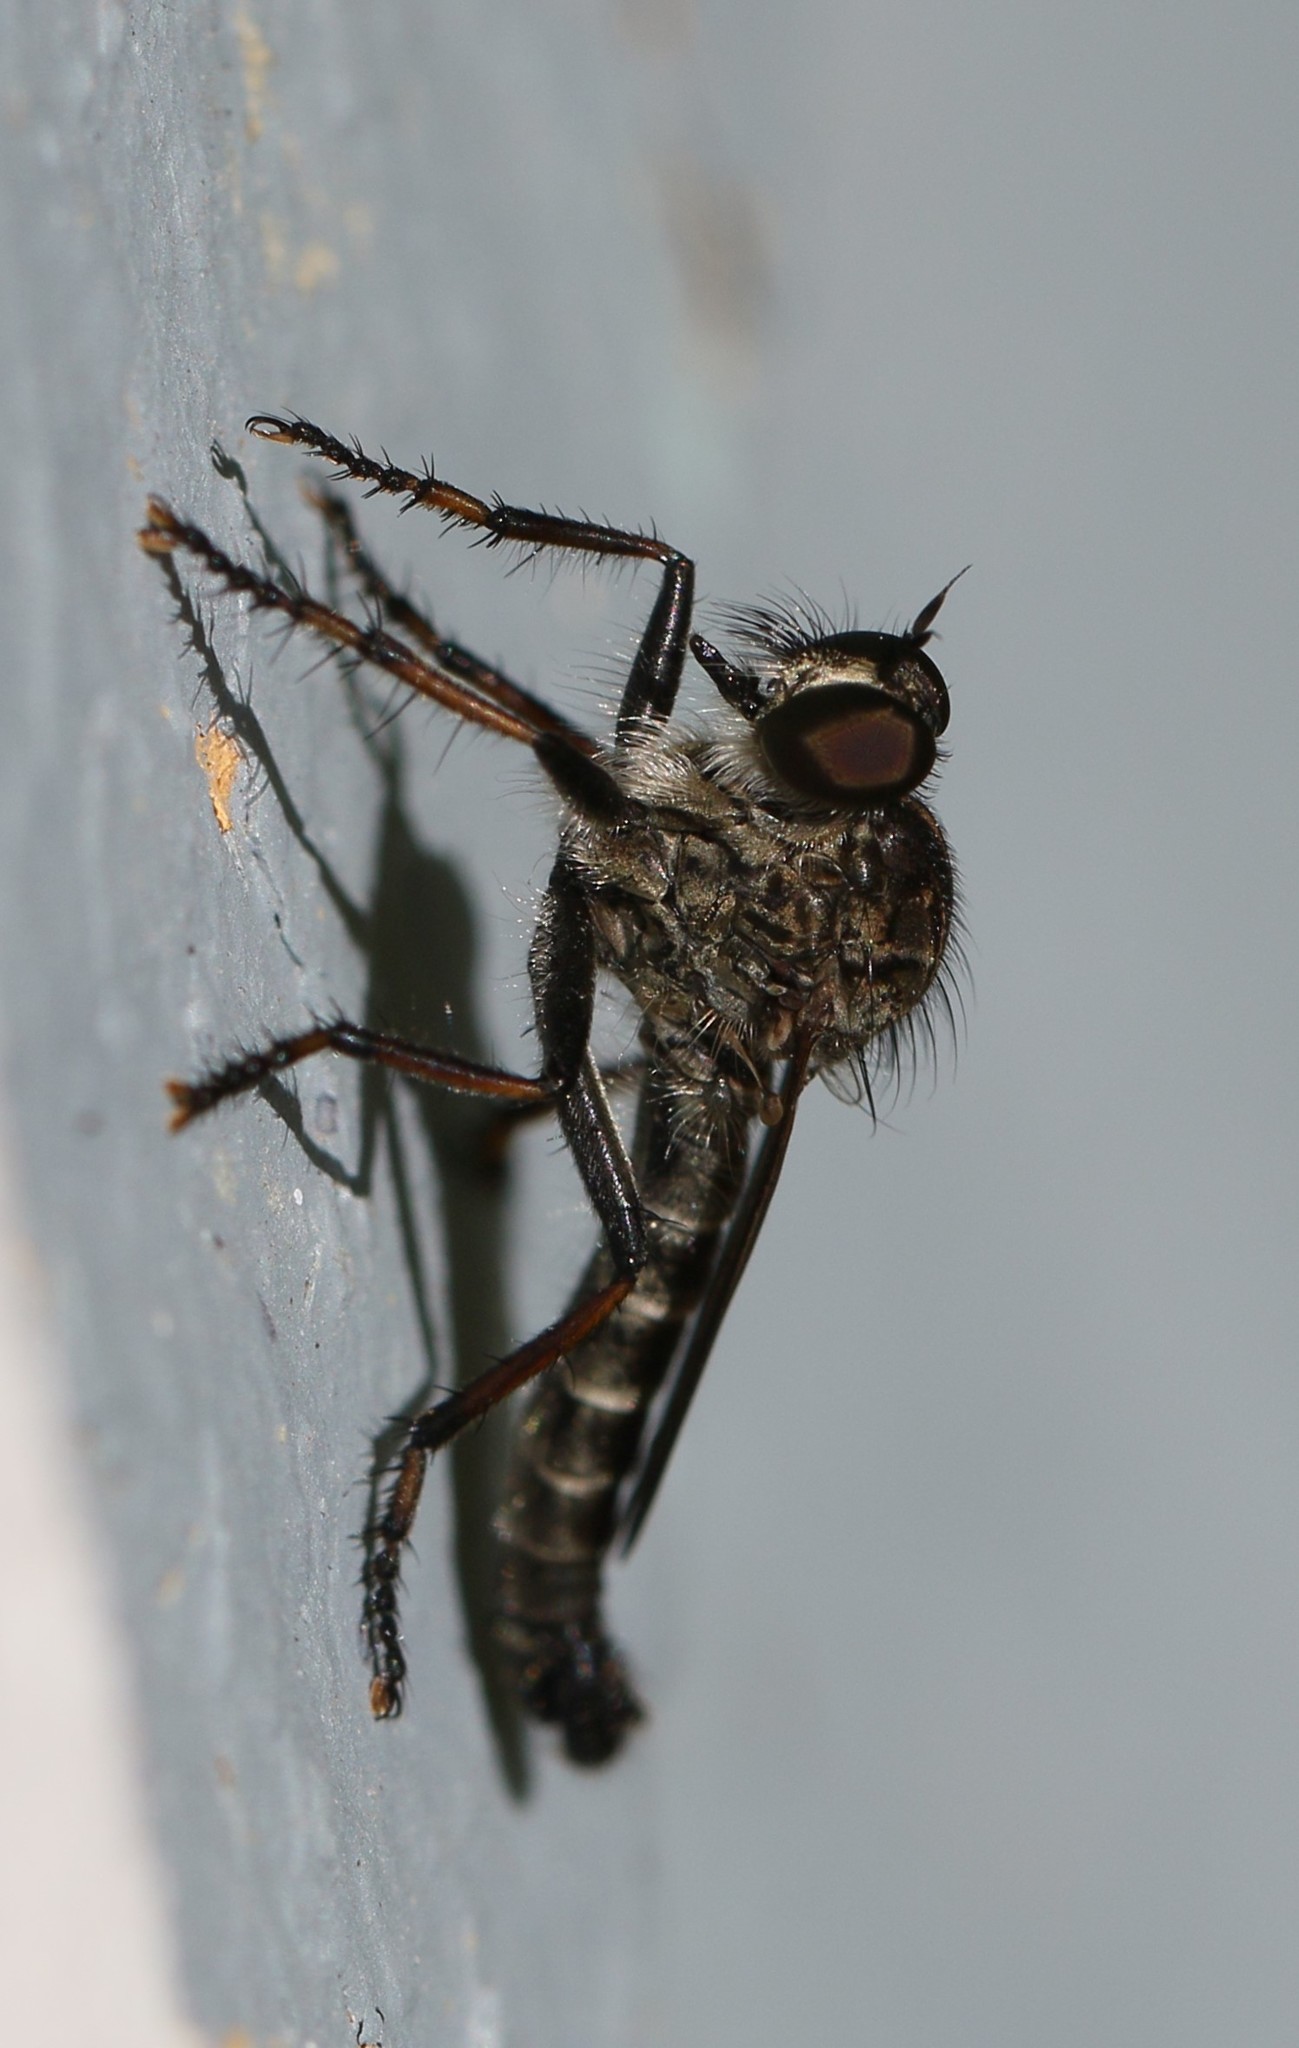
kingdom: Animalia
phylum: Arthropoda
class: Insecta
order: Diptera
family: Asilidae
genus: Machimus
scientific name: Machimus sadyates
